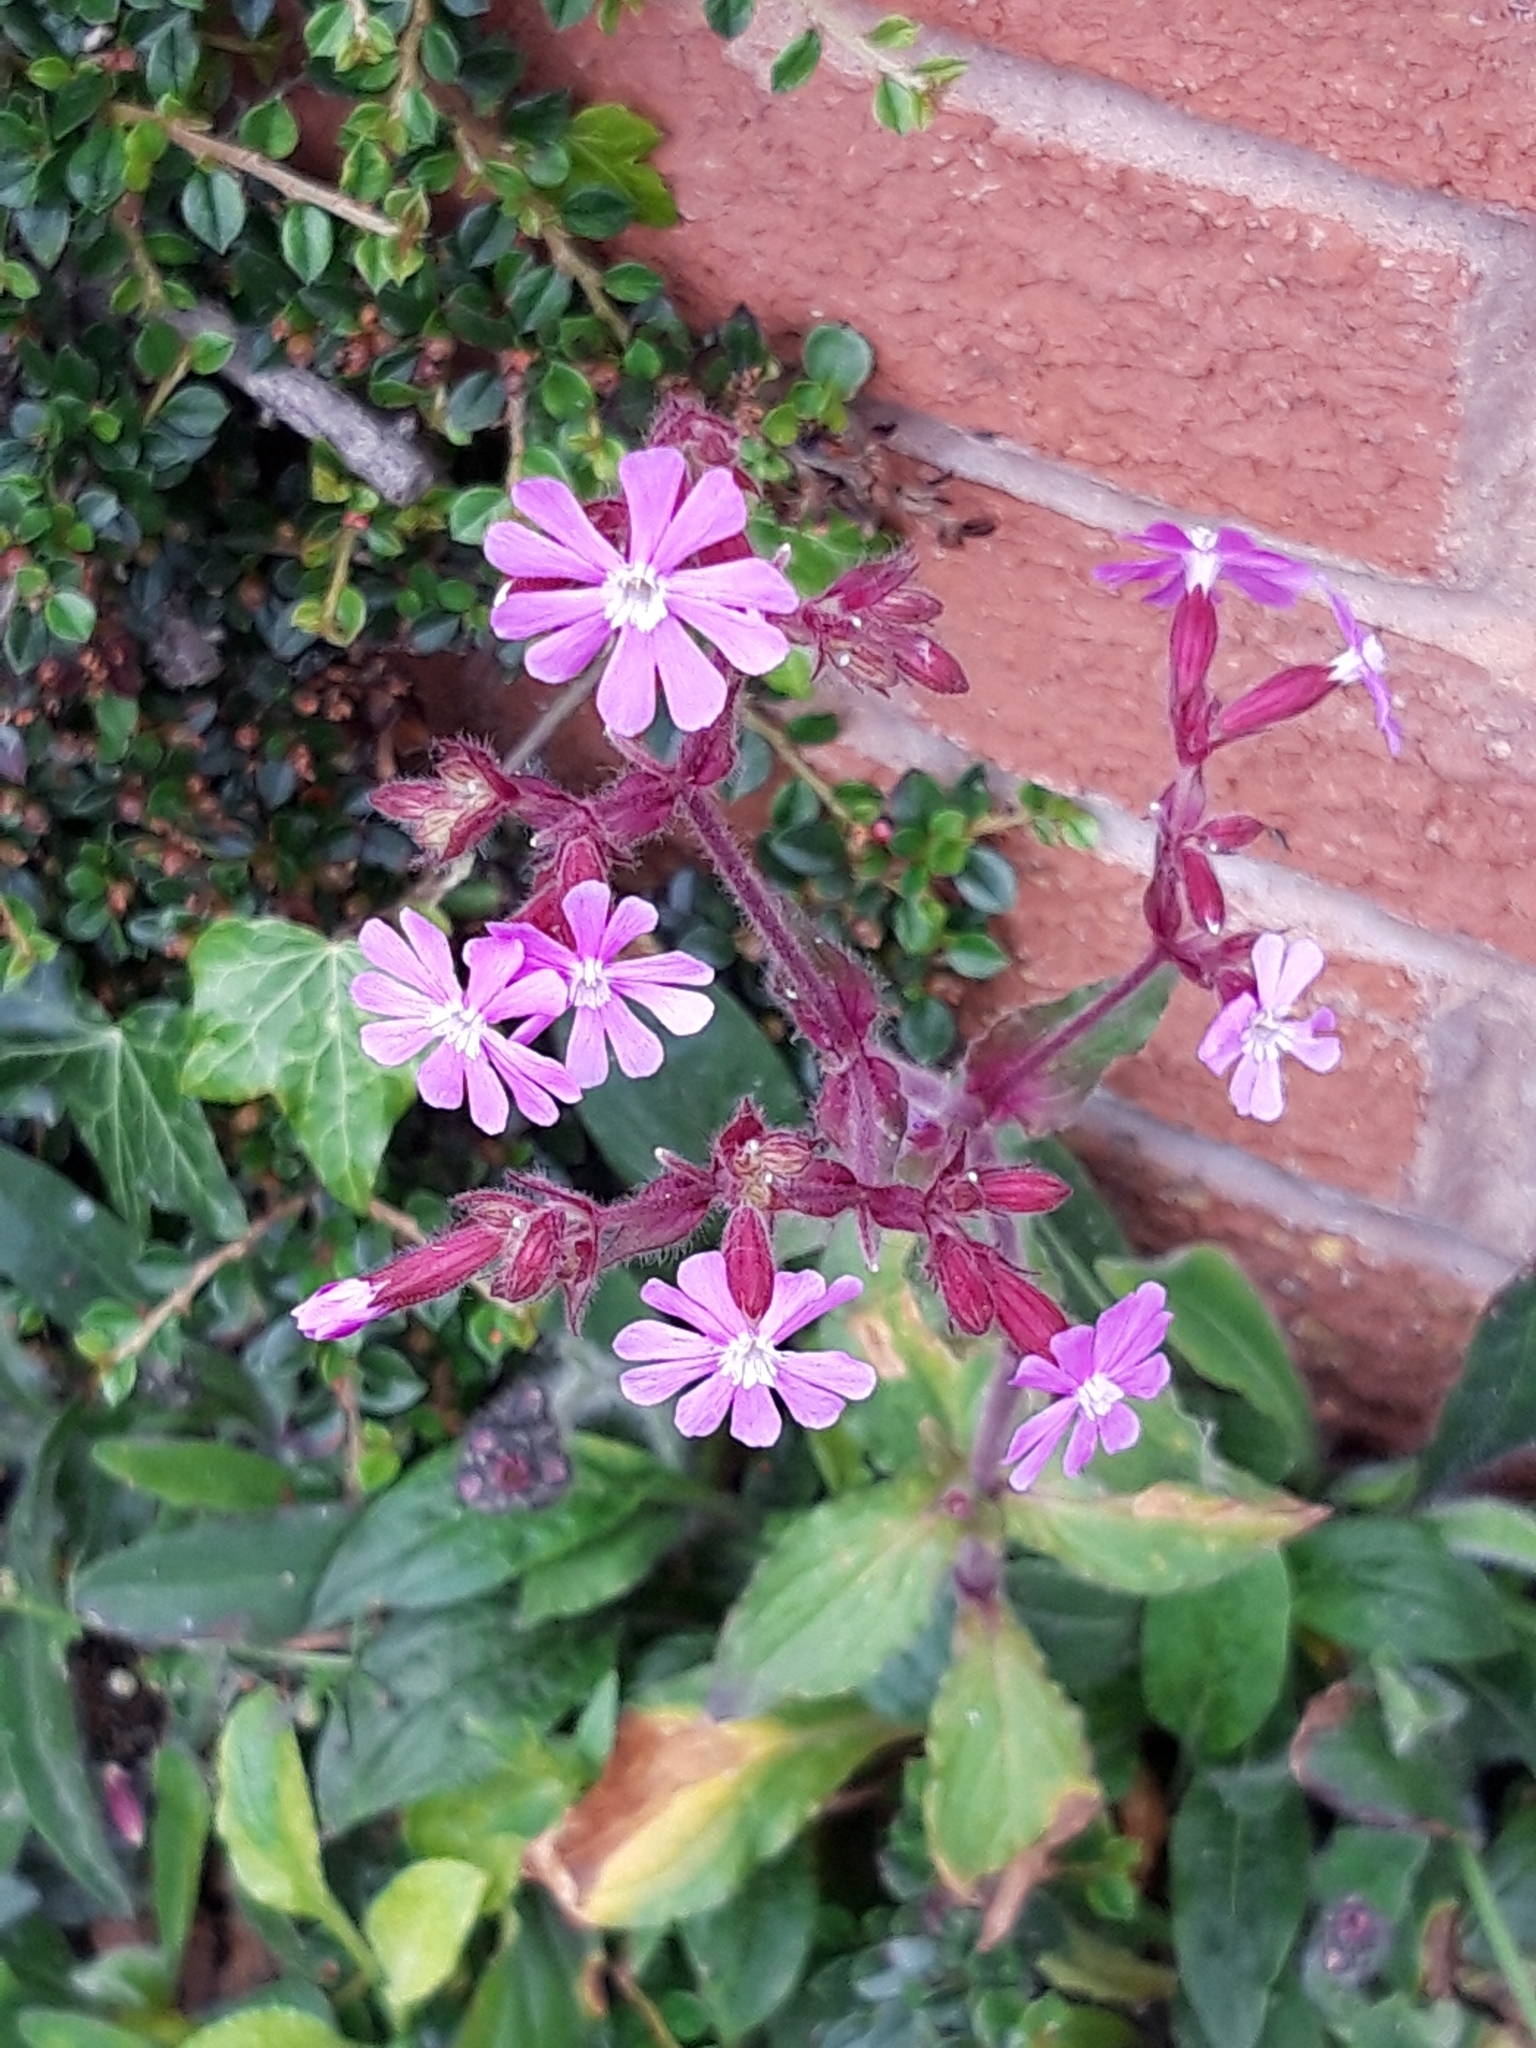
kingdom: Plantae
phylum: Tracheophyta
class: Magnoliopsida
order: Caryophyllales
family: Caryophyllaceae
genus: Silene
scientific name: Silene dioica
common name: Red campion
